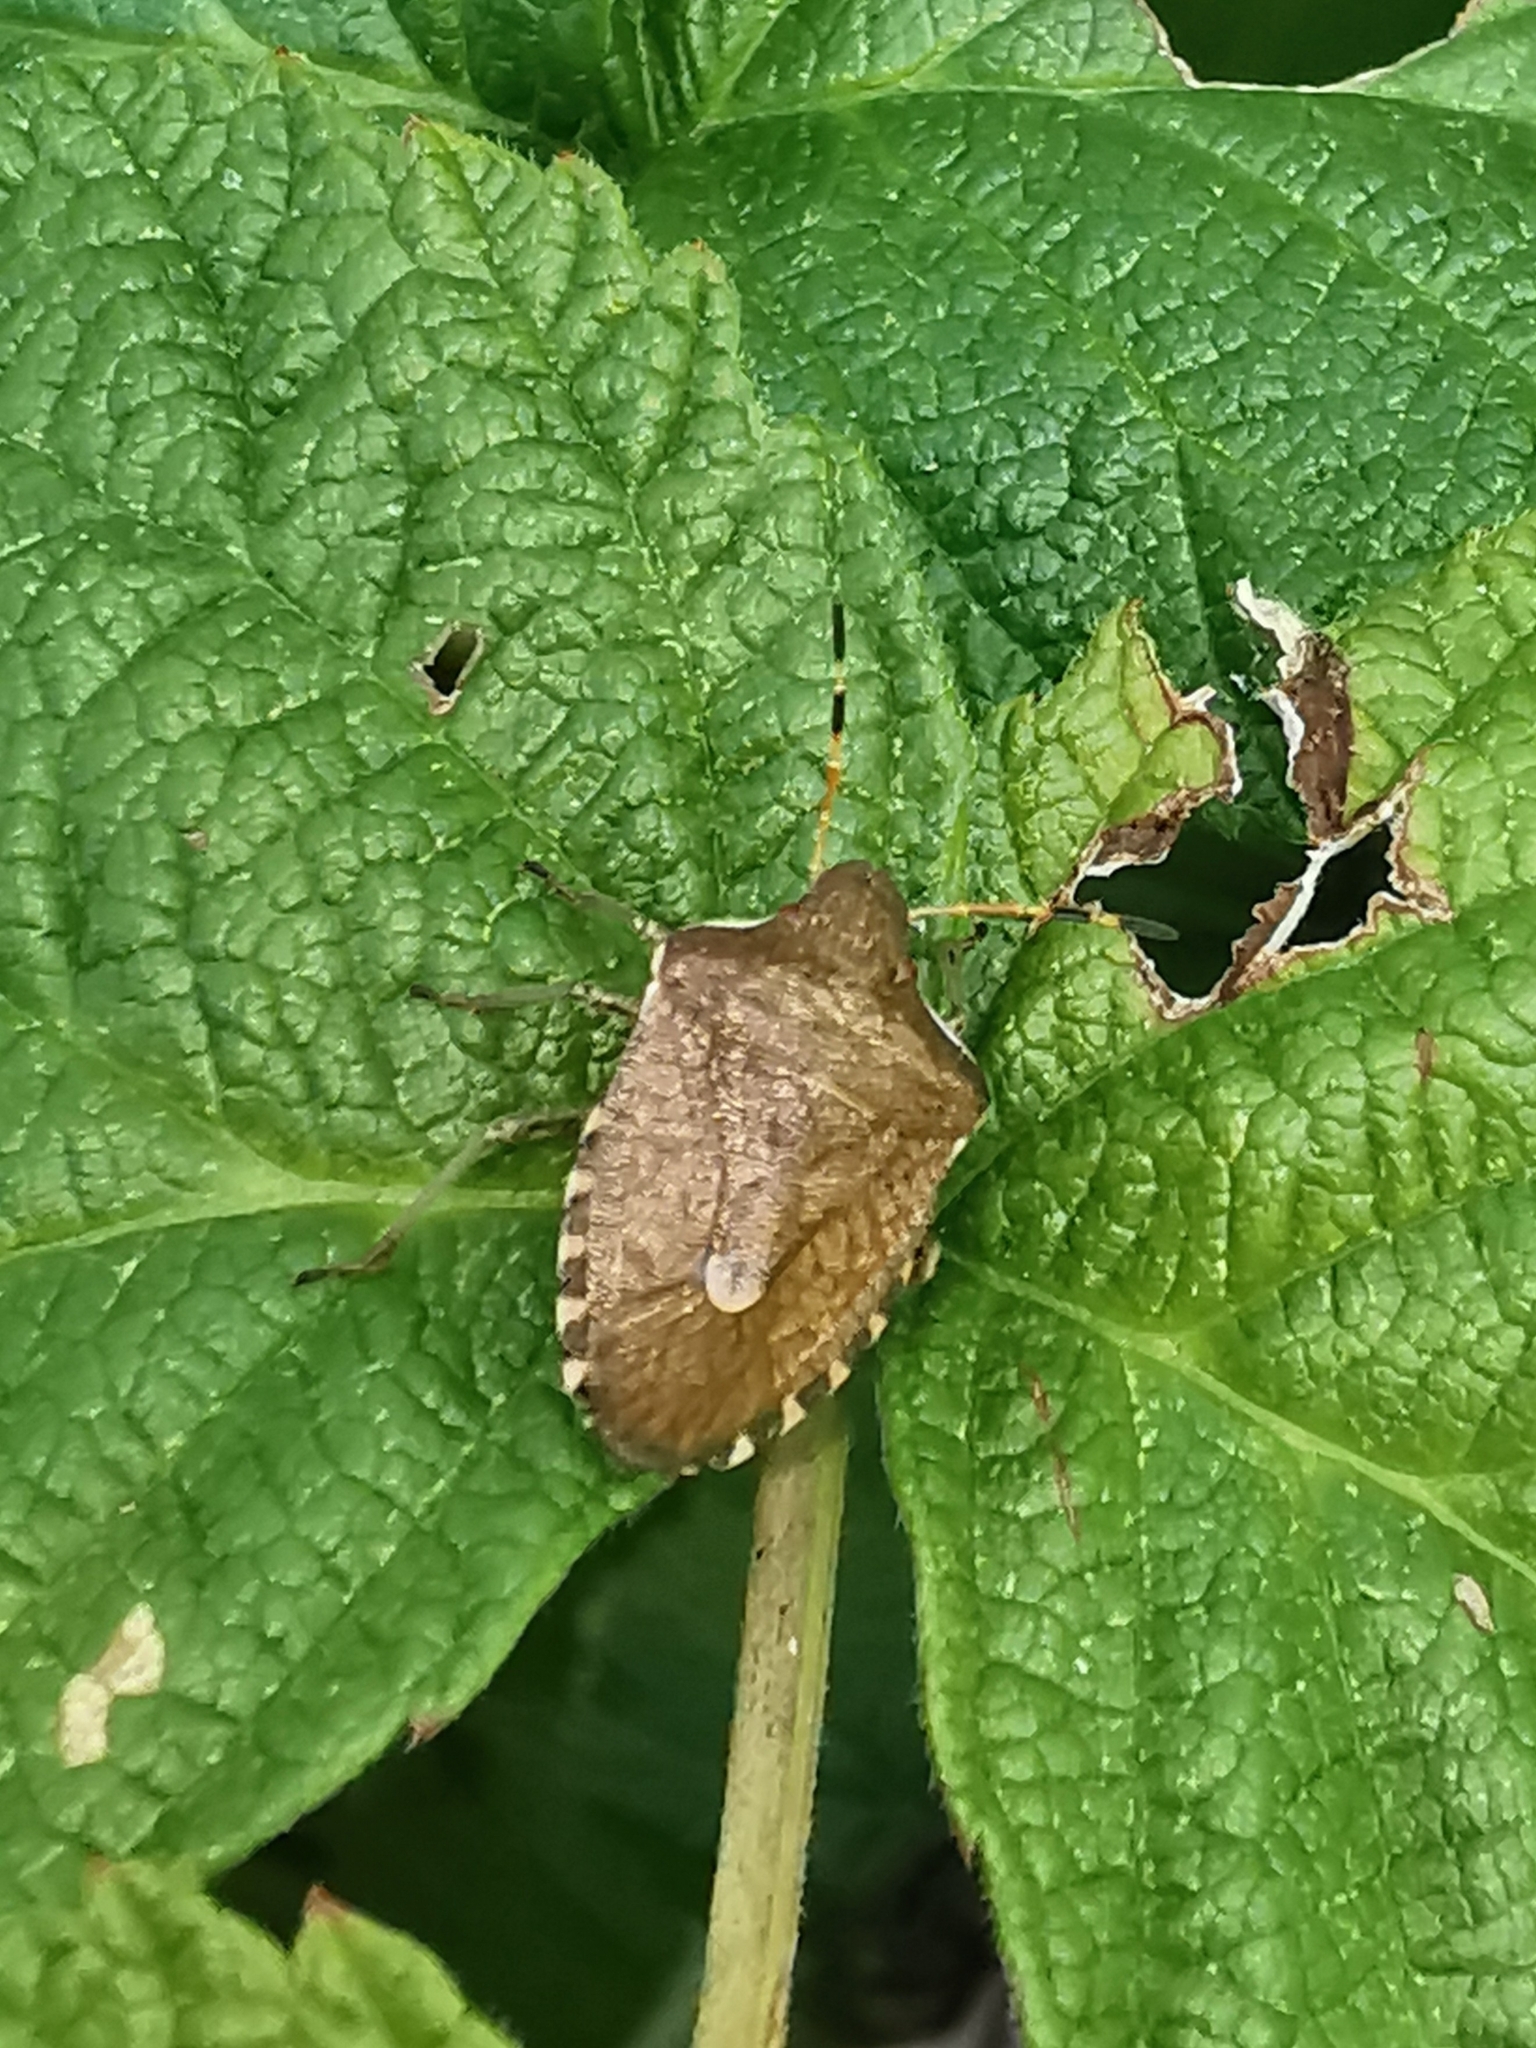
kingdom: Animalia
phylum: Arthropoda
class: Insecta
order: Hemiptera
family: Pentatomidae
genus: Holcostethus
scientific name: Holcostethus strictus
